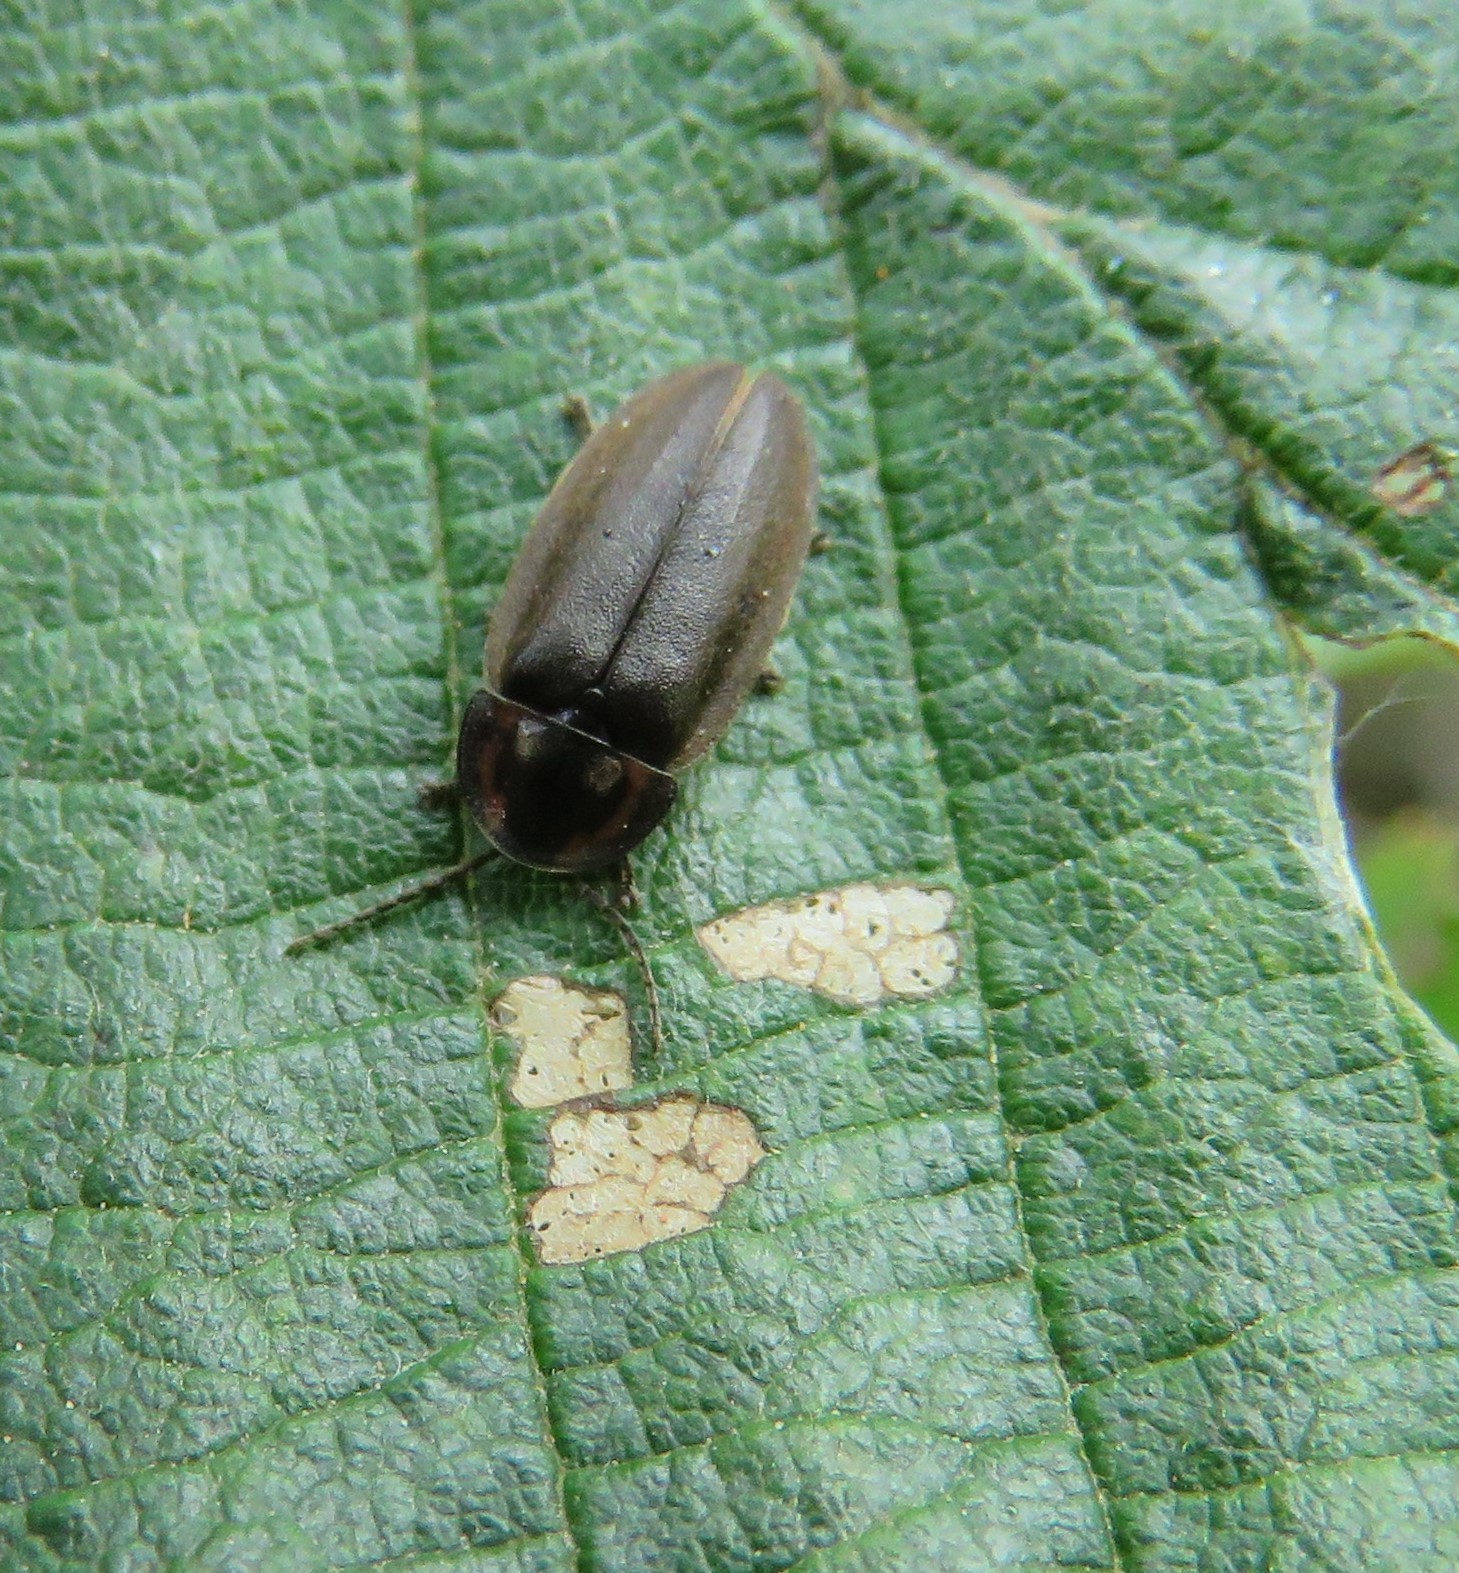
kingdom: Animalia
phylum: Arthropoda
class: Insecta
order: Coleoptera
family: Lampyridae
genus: Photinus
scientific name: Photinus corrusca
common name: Winter firefly
